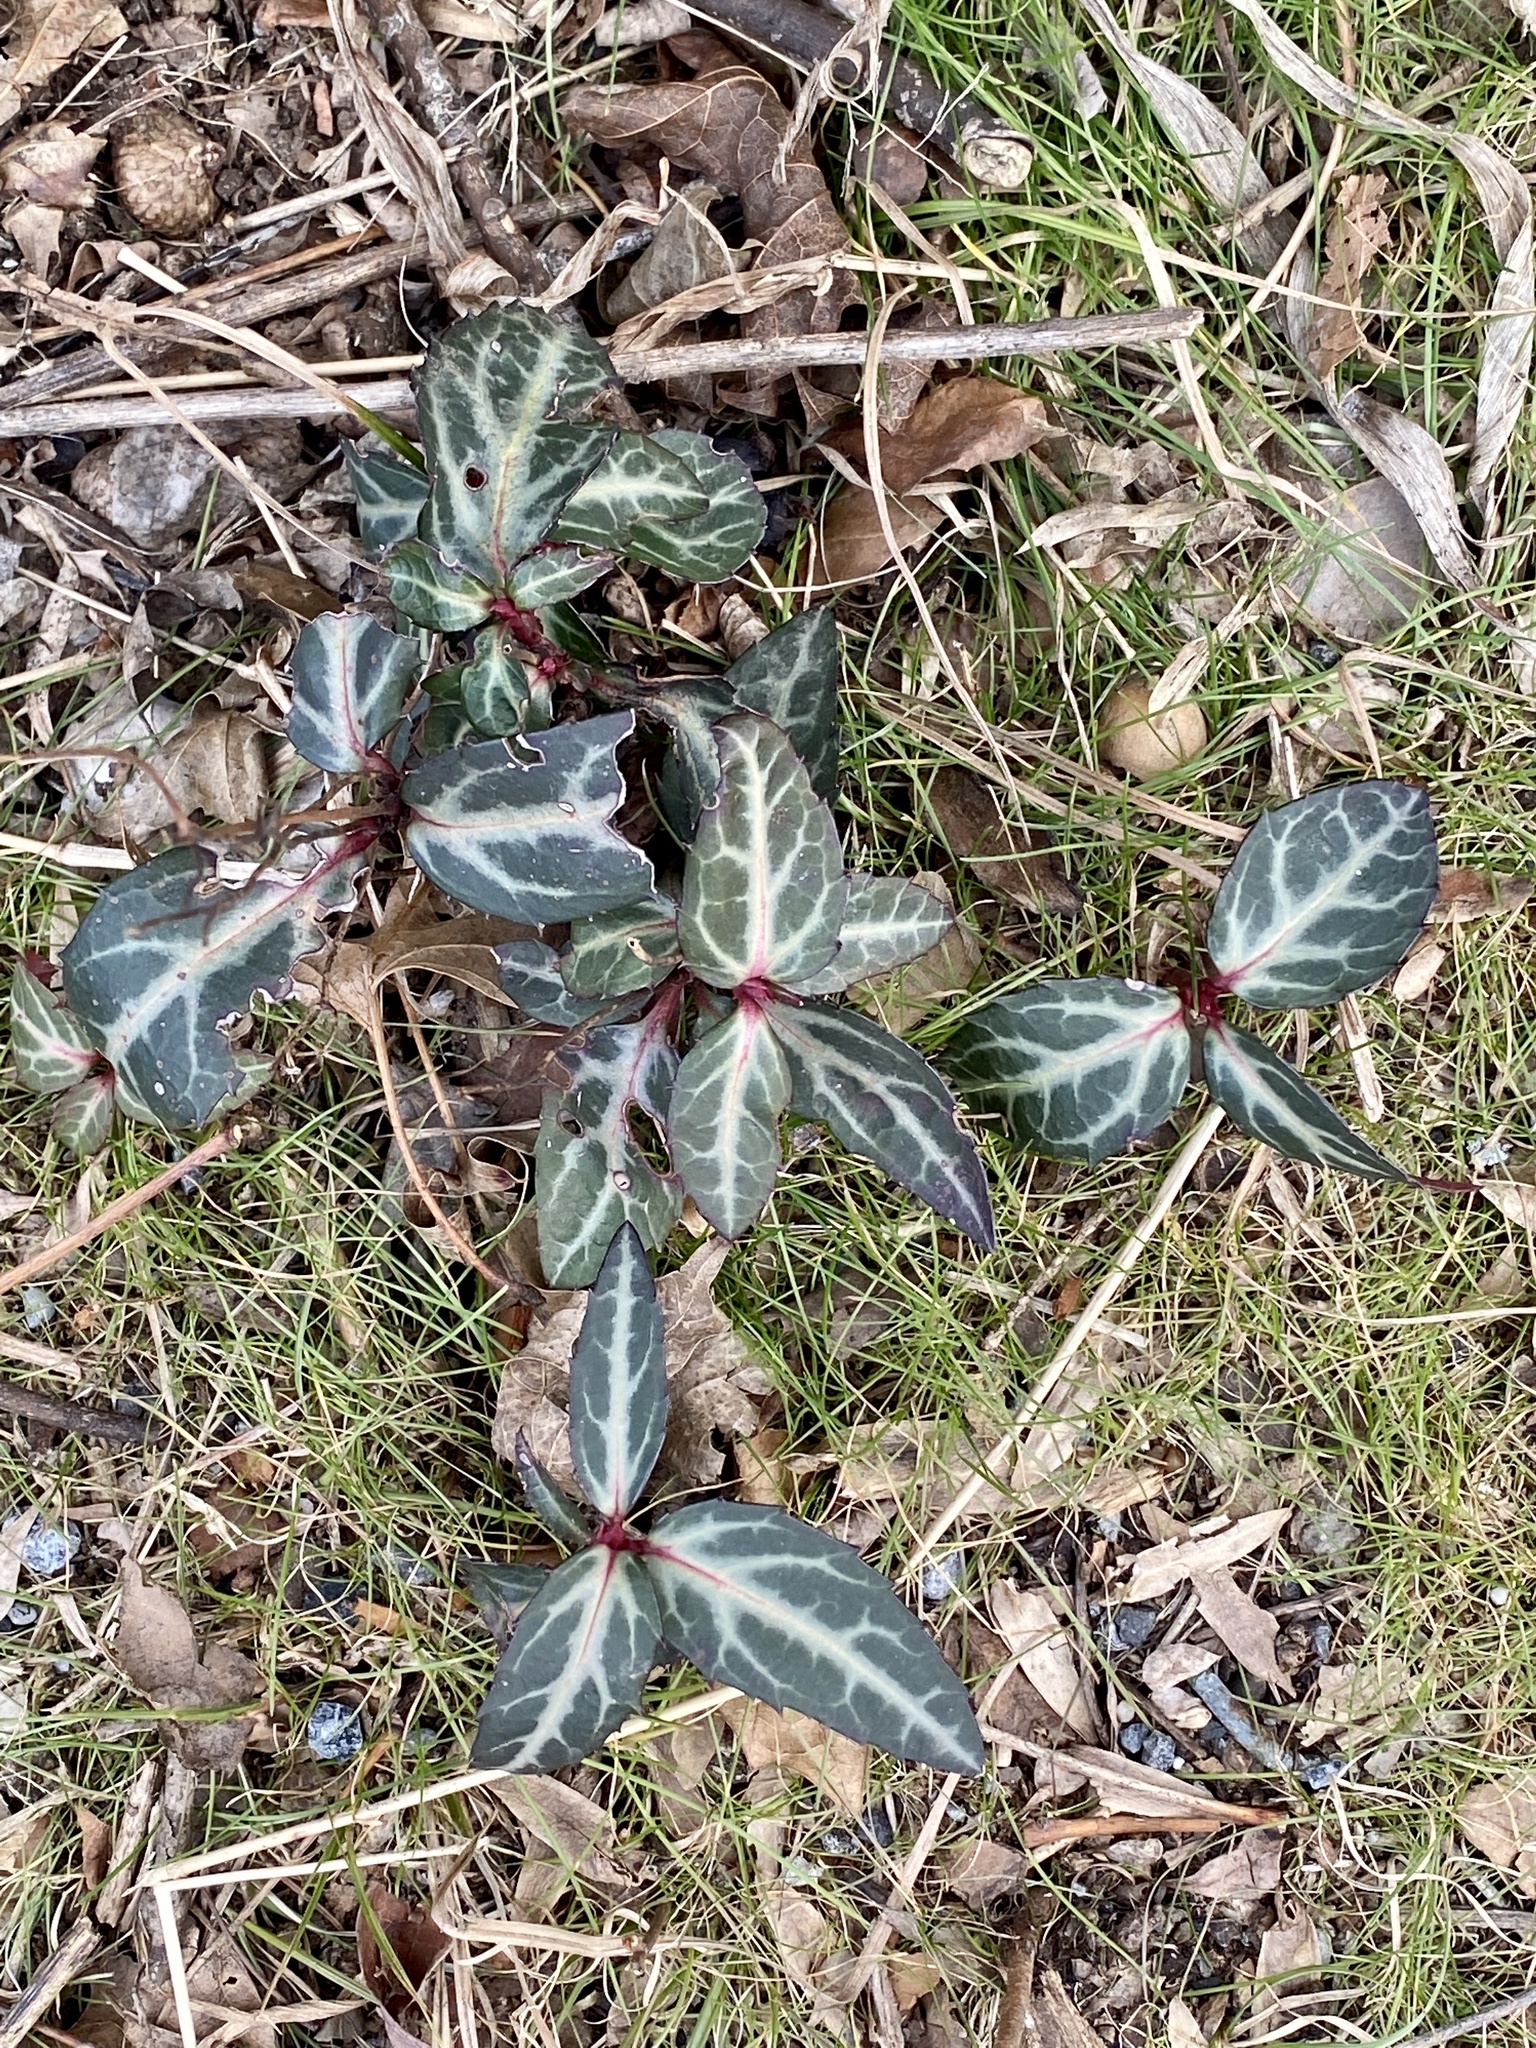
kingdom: Plantae
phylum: Tracheophyta
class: Magnoliopsida
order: Ericales
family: Ericaceae
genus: Chimaphila
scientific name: Chimaphila maculata
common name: Spotted pipsissewa
